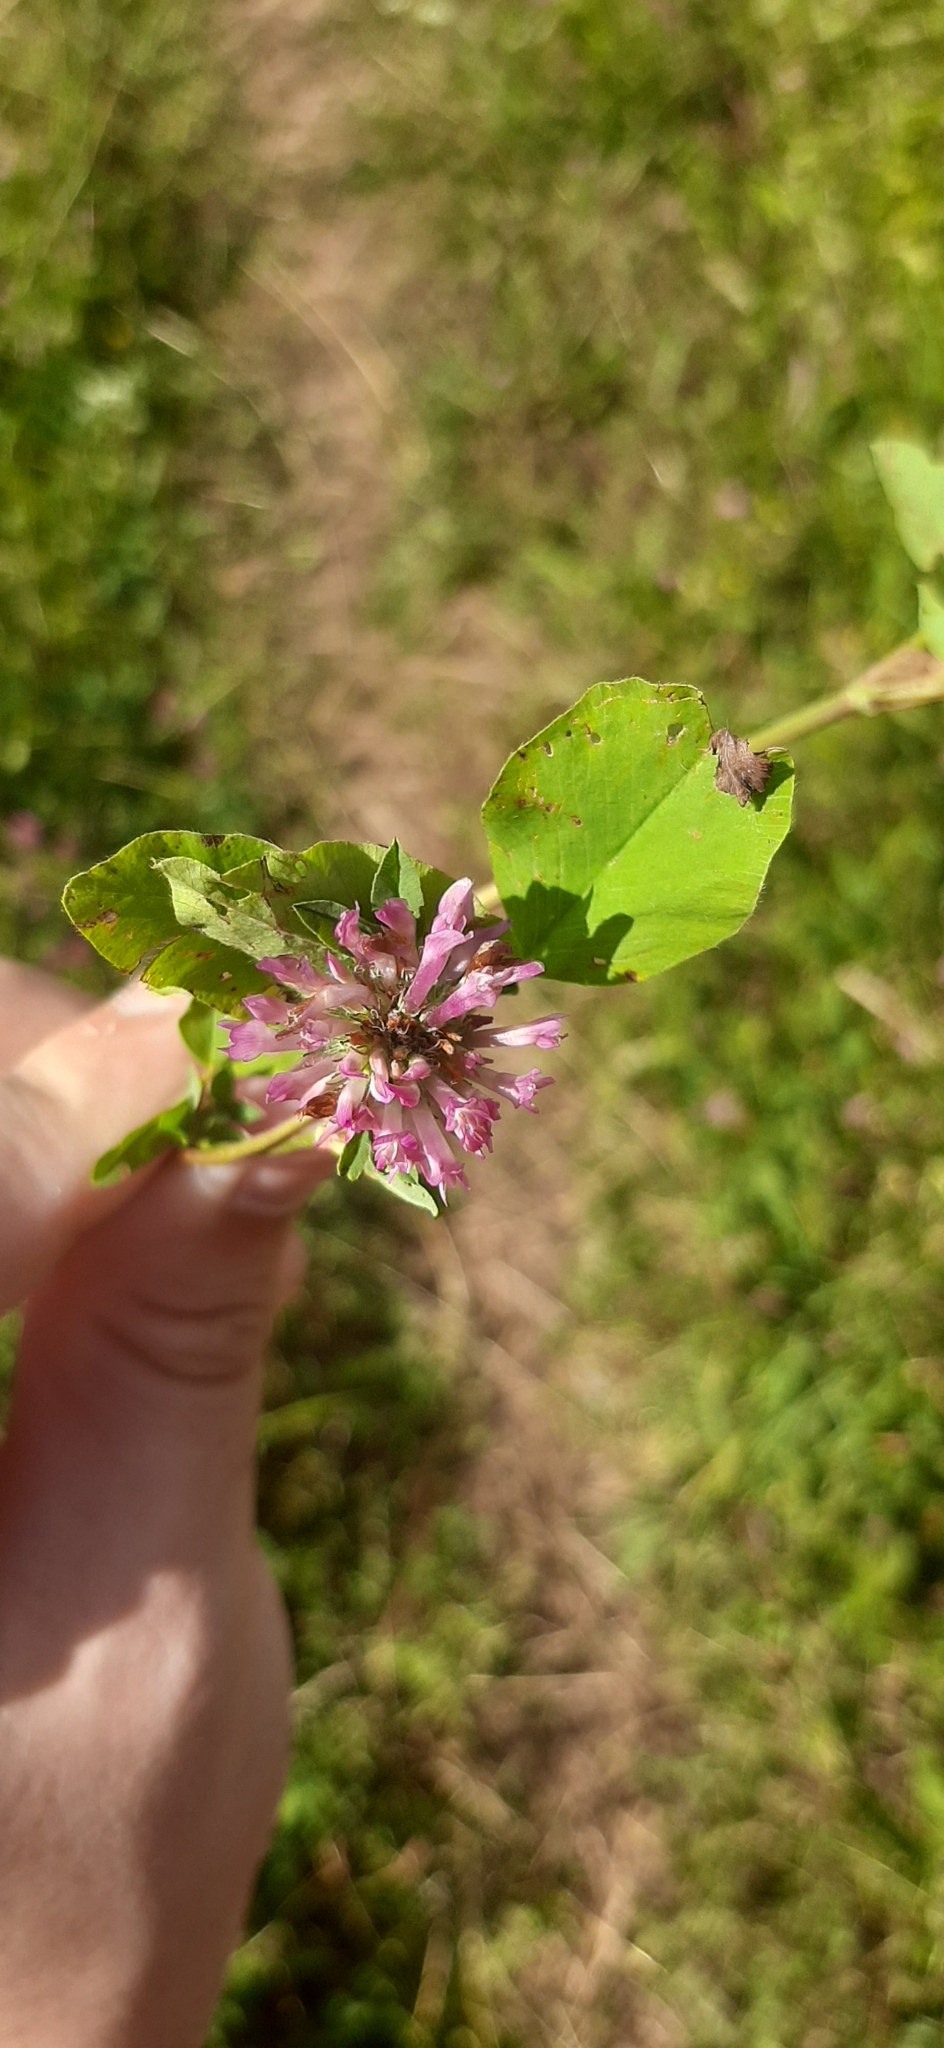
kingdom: Plantae
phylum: Tracheophyta
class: Magnoliopsida
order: Fabales
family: Fabaceae
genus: Trifolium
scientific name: Trifolium pratense
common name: Red clover
